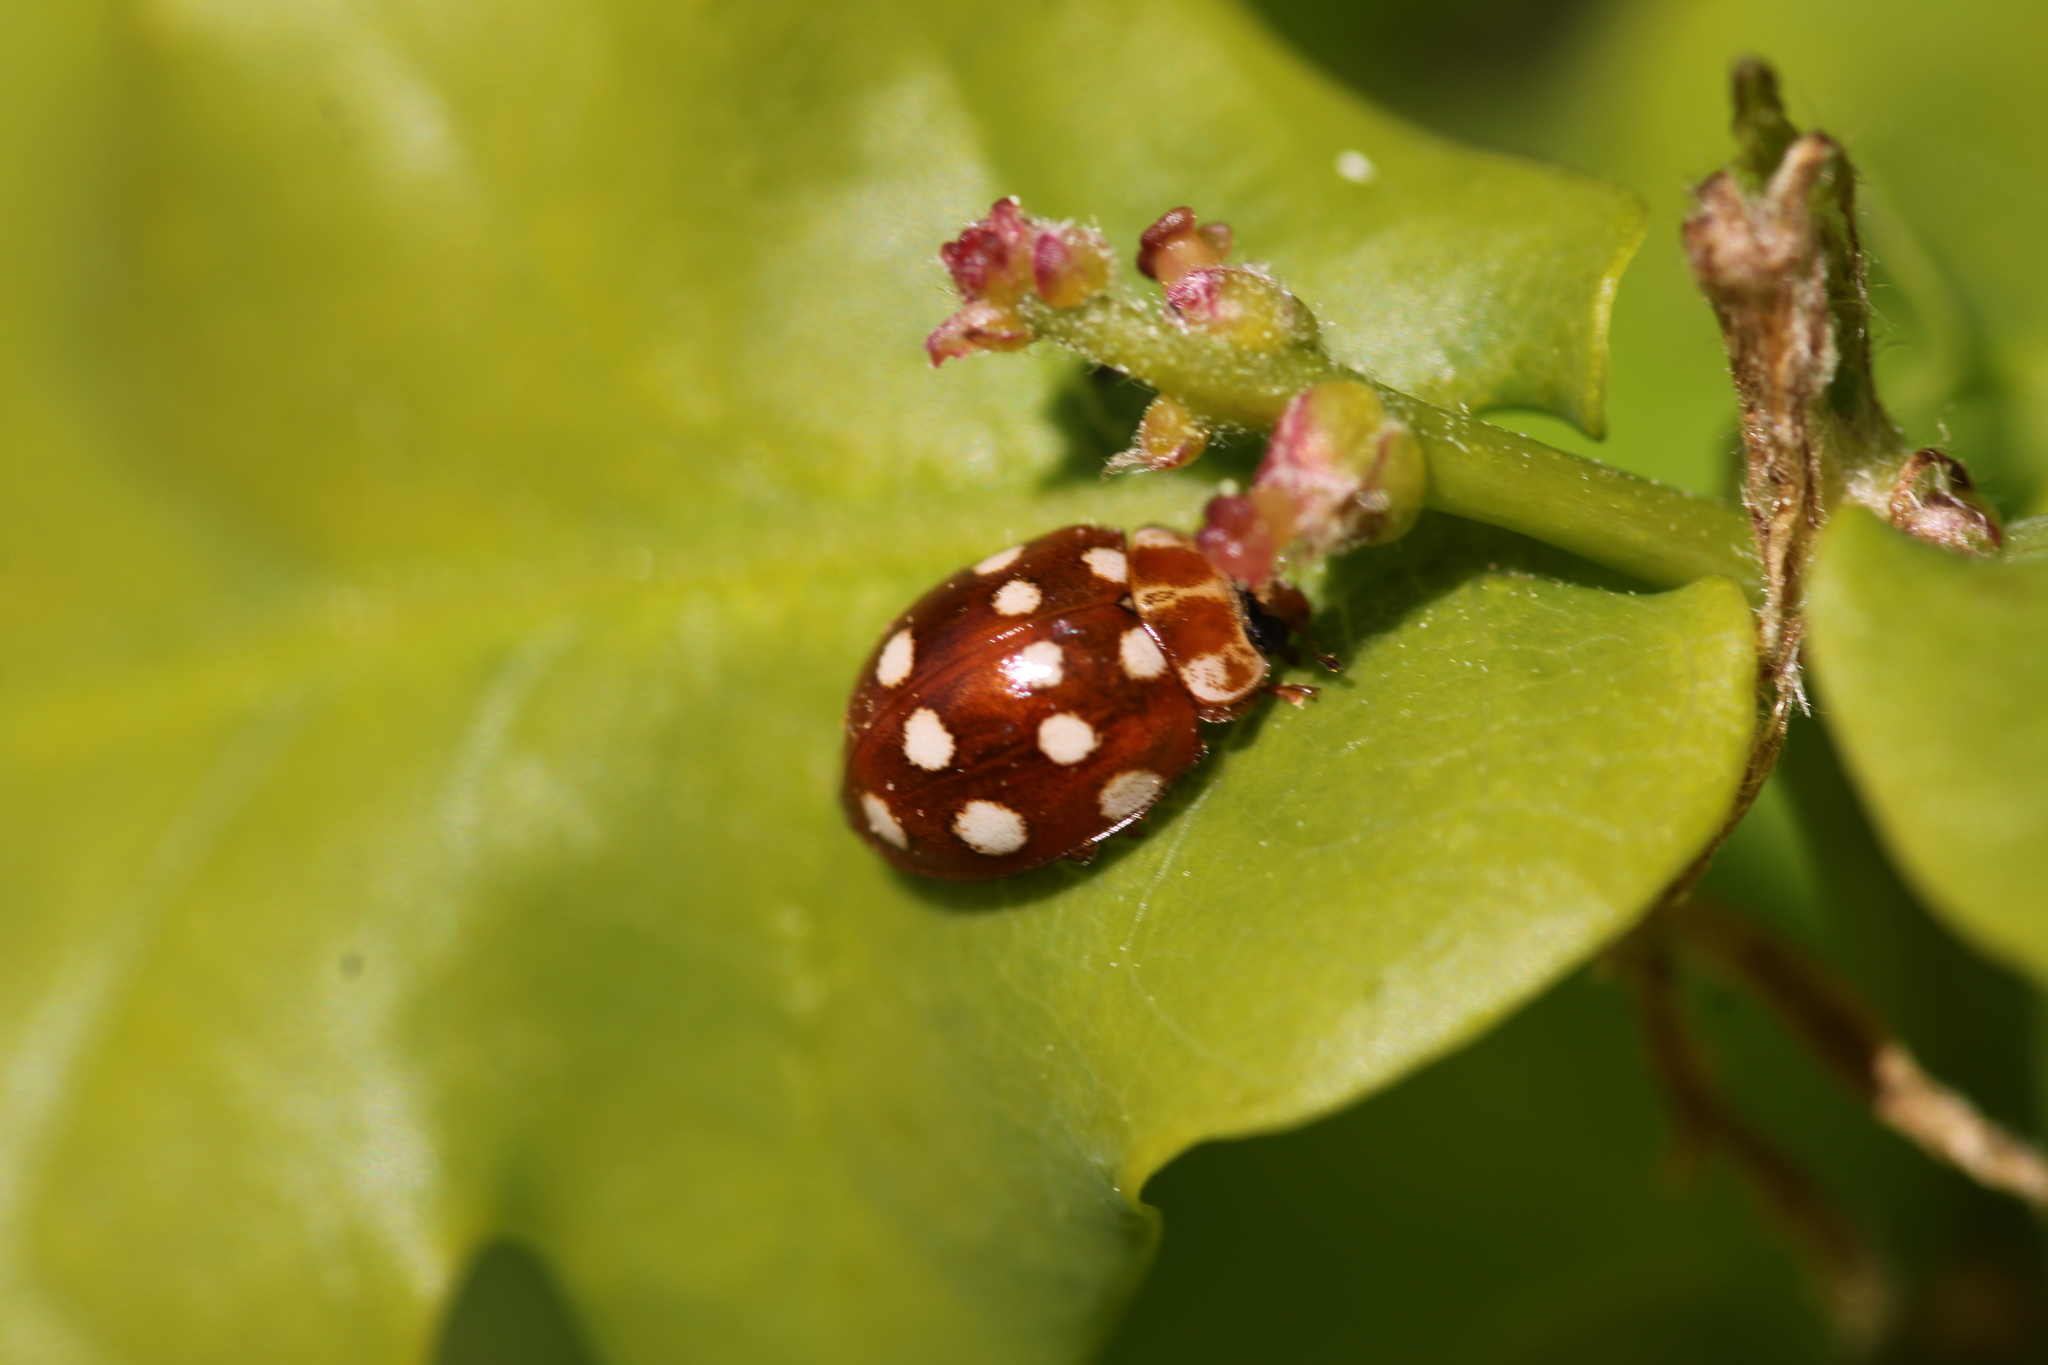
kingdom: Animalia
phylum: Arthropoda
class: Insecta
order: Coleoptera
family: Coccinellidae
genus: Calvia
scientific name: Calvia quatuordecimguttata
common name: Cream-spot ladybird
